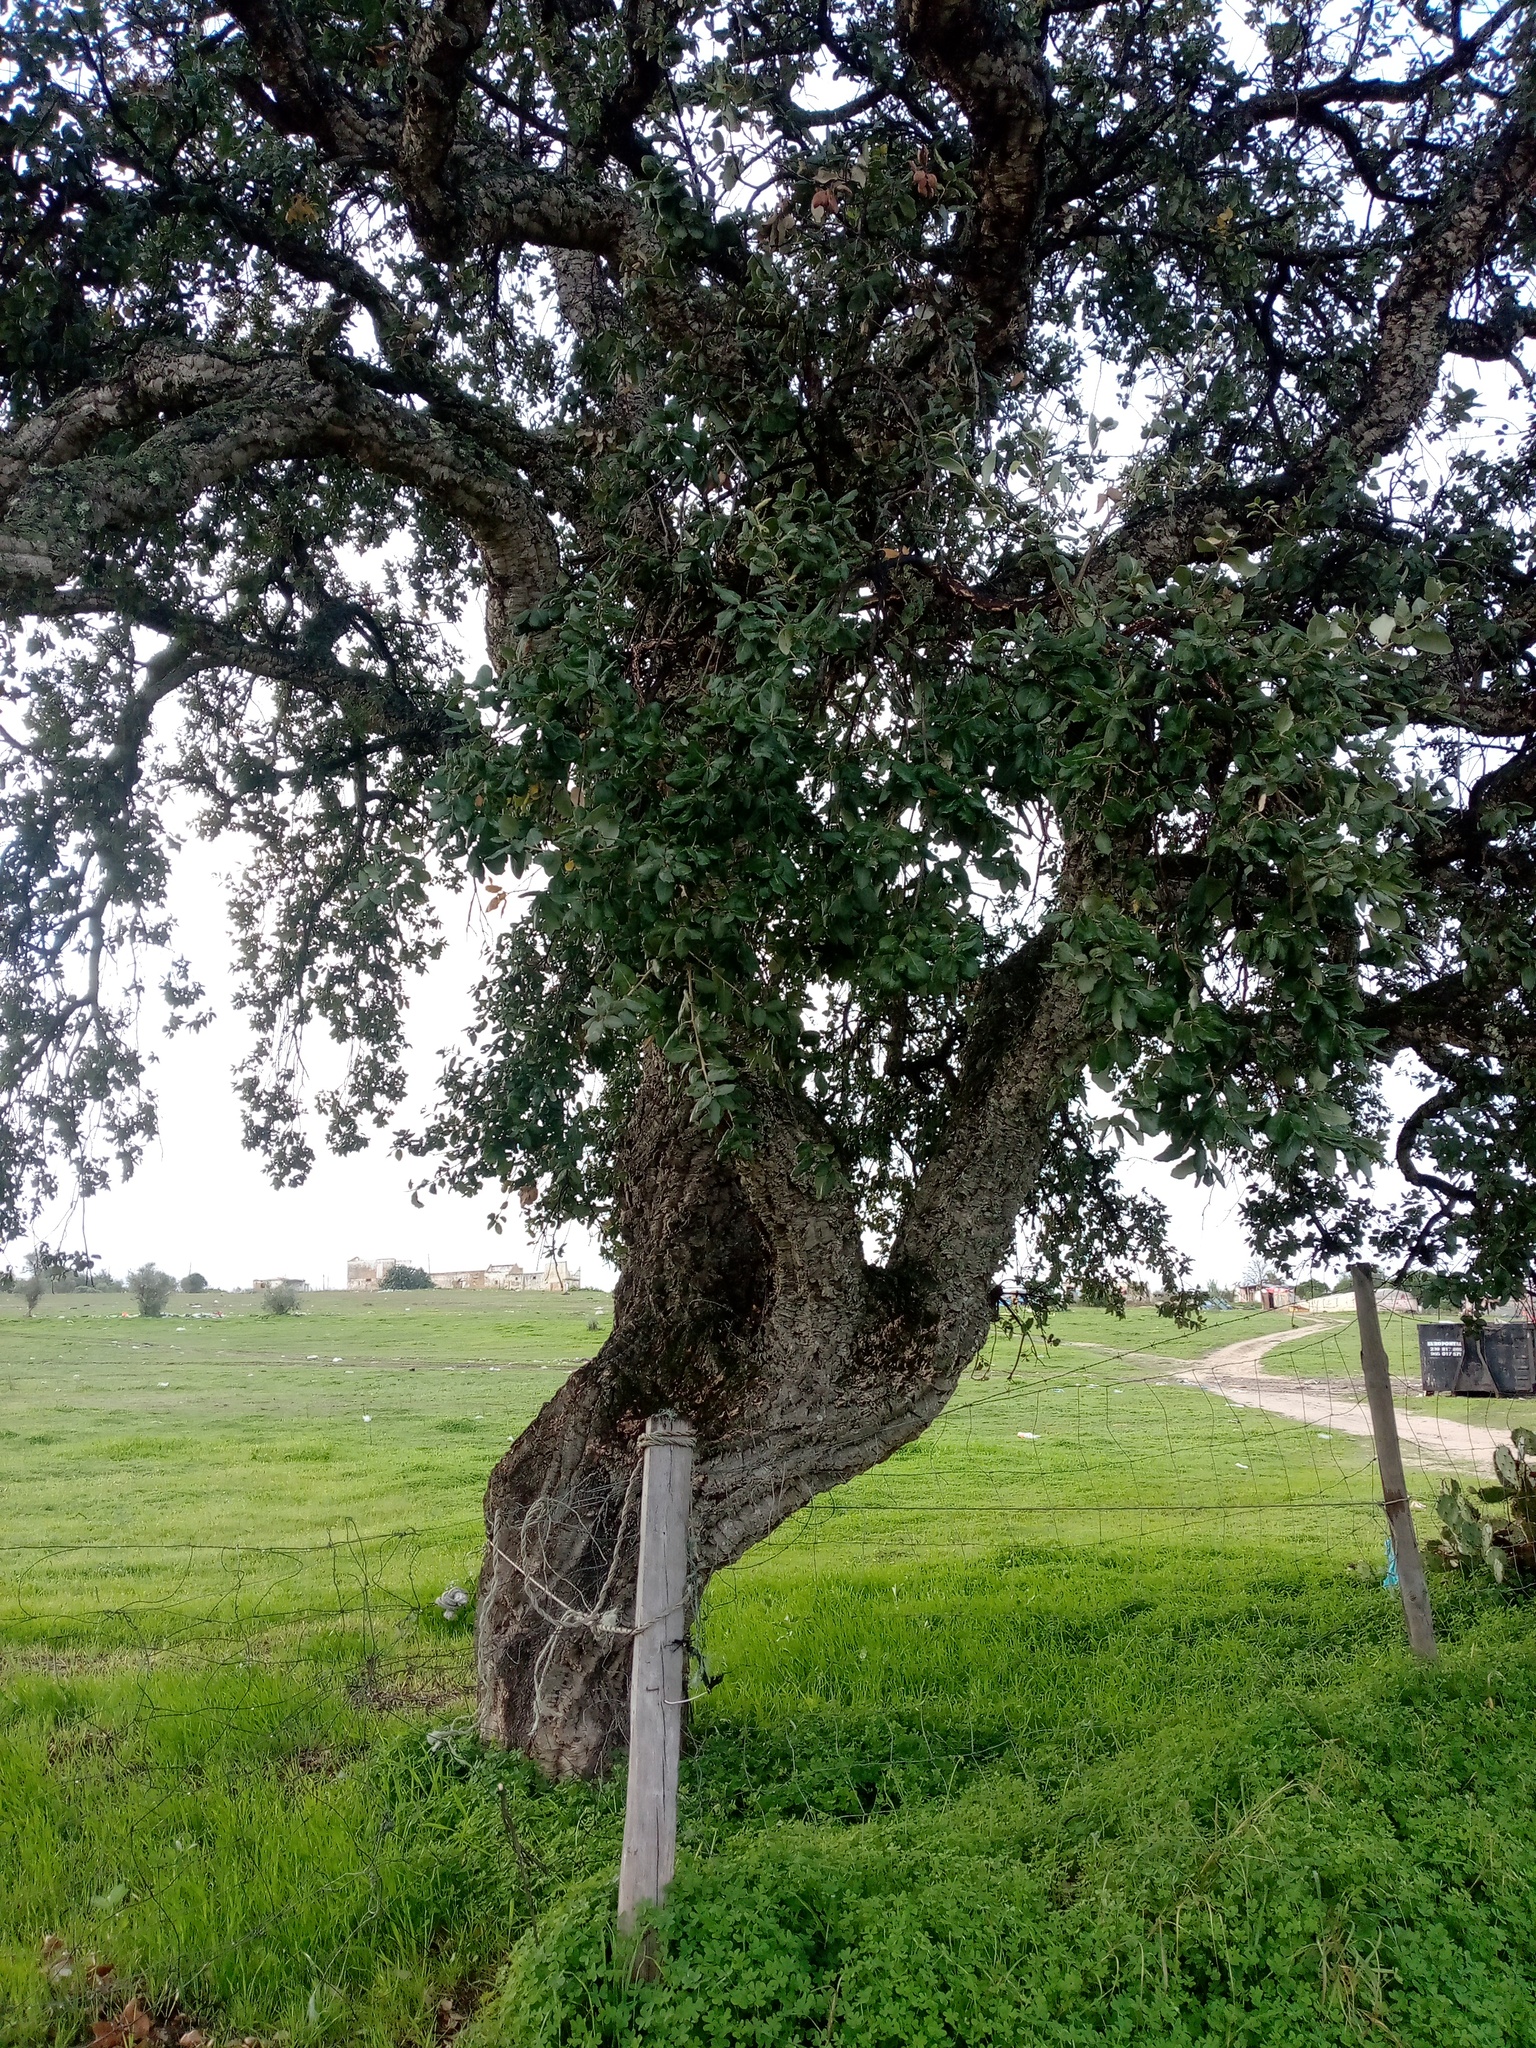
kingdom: Plantae
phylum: Tracheophyta
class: Magnoliopsida
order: Fagales
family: Fagaceae
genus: Quercus
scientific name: Quercus suber
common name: Cork oak
